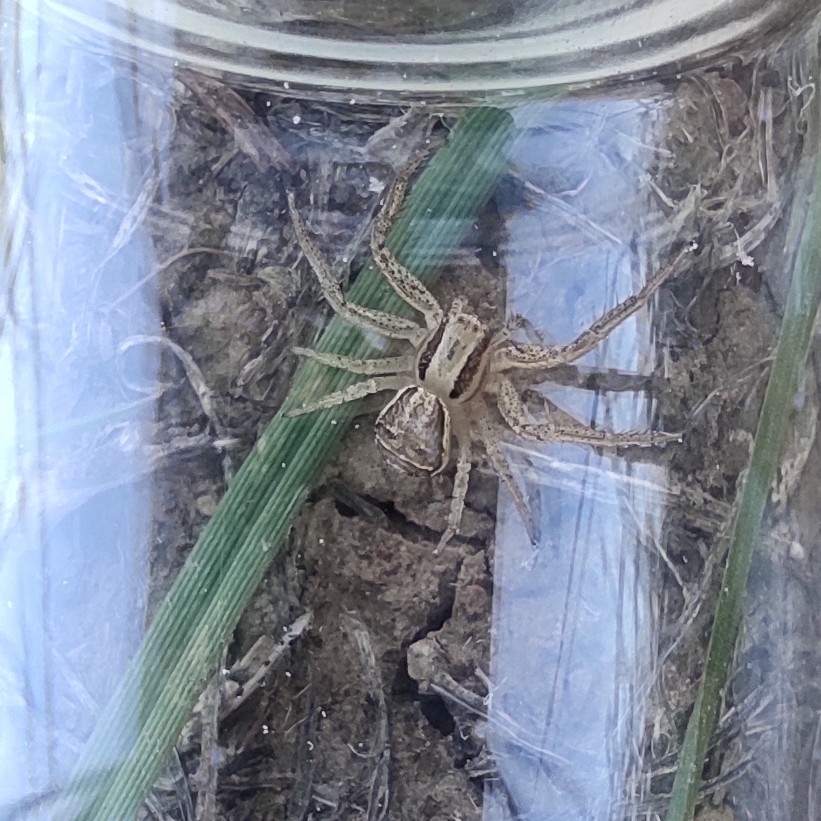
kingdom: Animalia
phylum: Arthropoda
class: Arachnida
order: Araneae
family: Thomisidae
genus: Xysticus
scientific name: Xysticus ulmi
